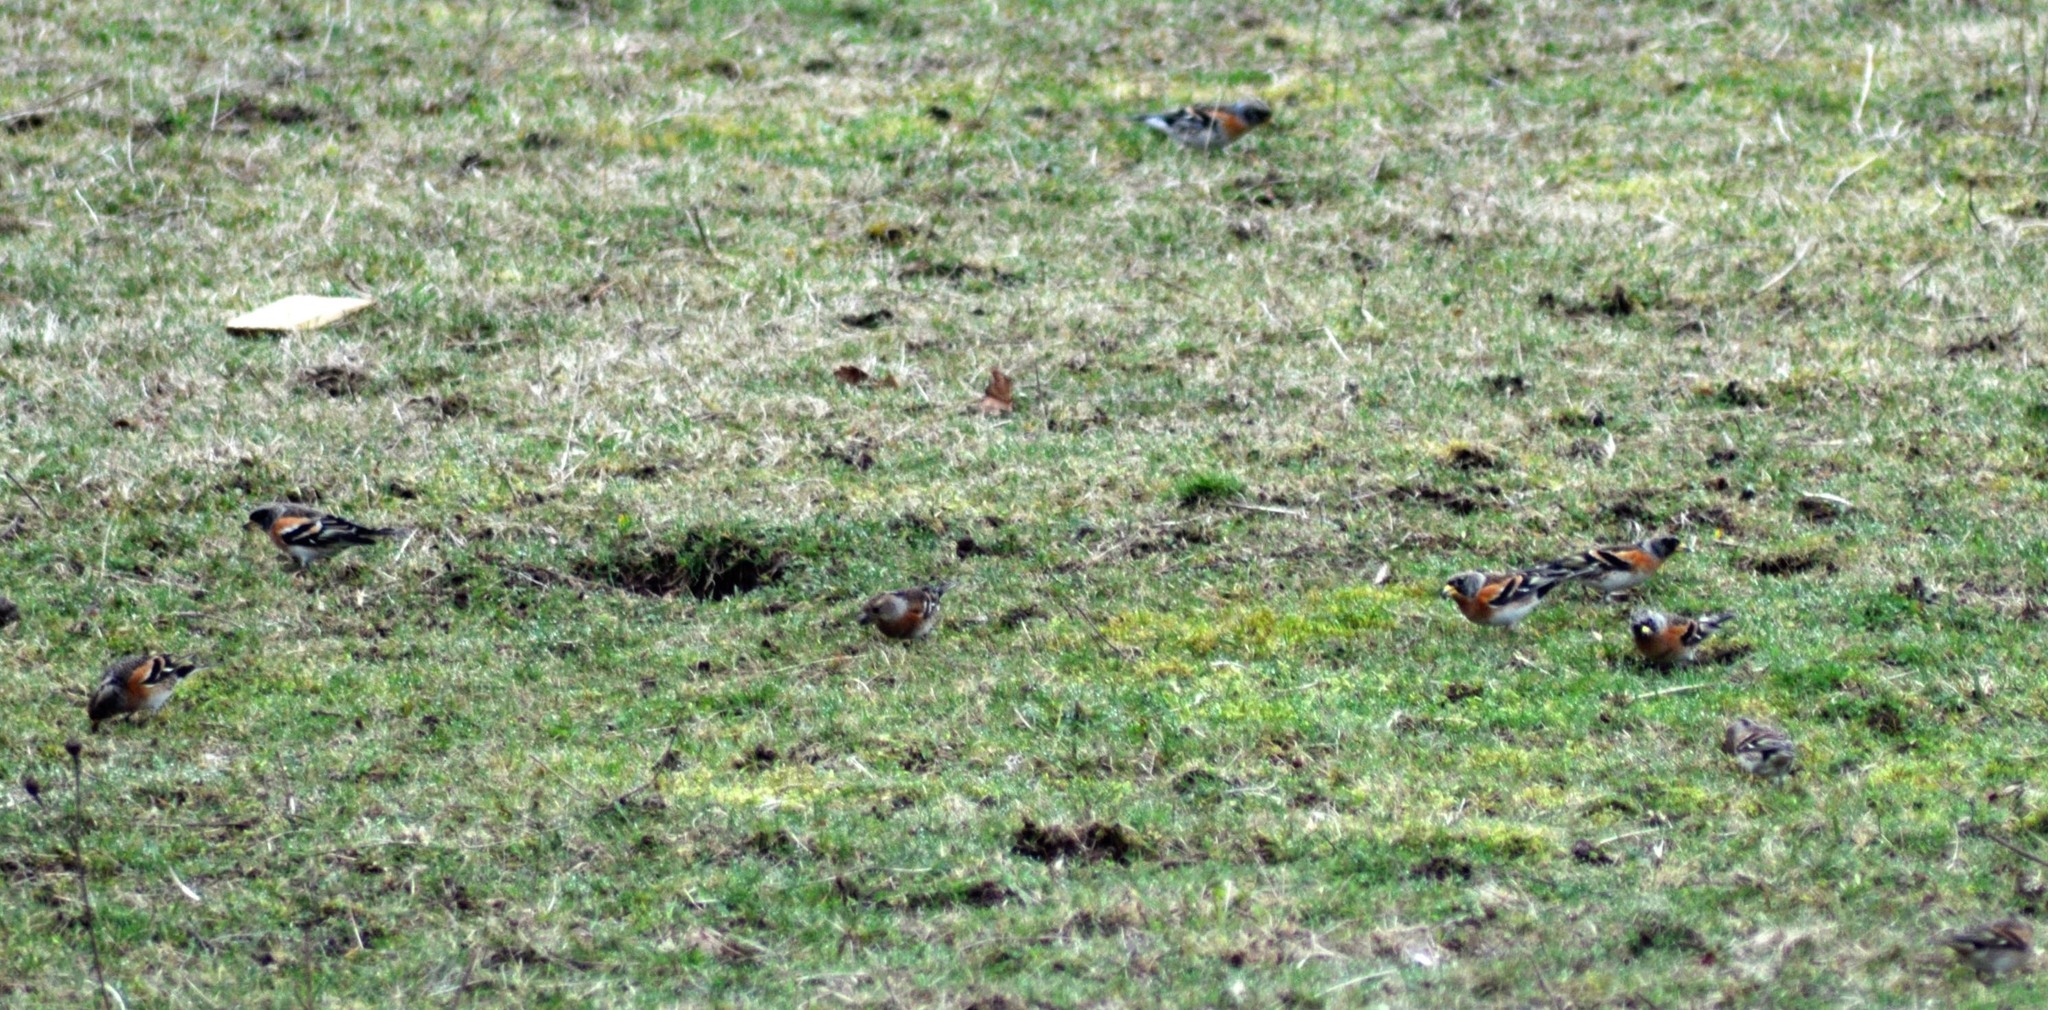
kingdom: Animalia
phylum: Chordata
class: Aves
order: Passeriformes
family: Fringillidae
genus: Fringilla
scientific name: Fringilla montifringilla
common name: Brambling
